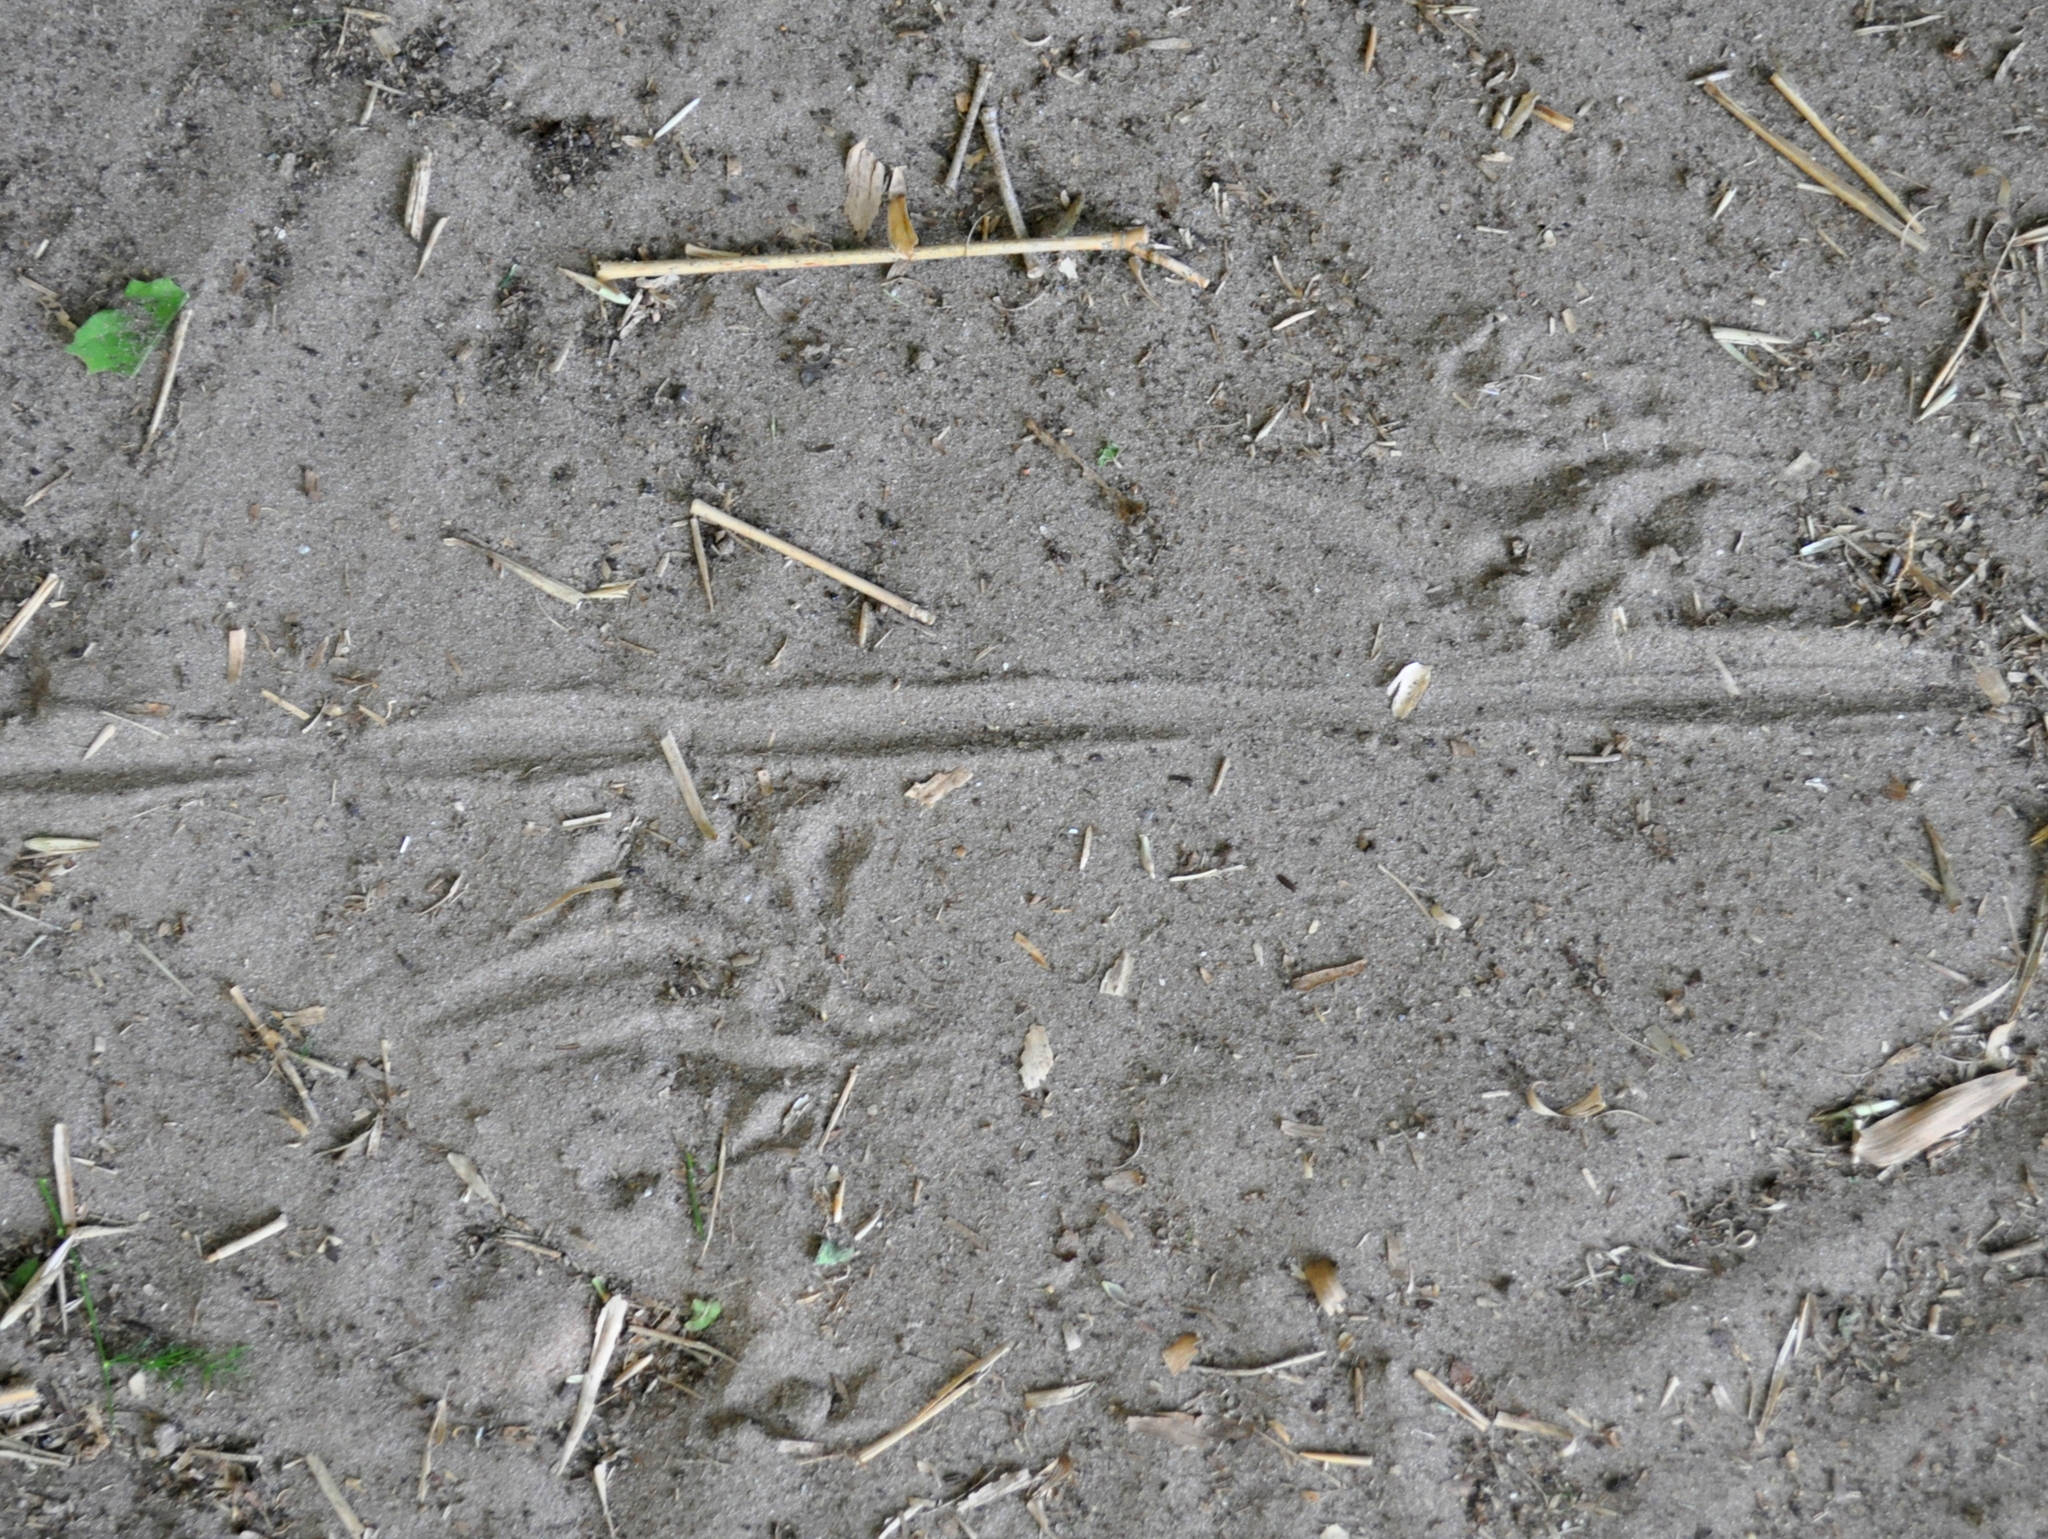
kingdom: Animalia
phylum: Chordata
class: Squamata
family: Teiidae
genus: Salvator
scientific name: Salvator merianae
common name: Argentine black and white tegu
